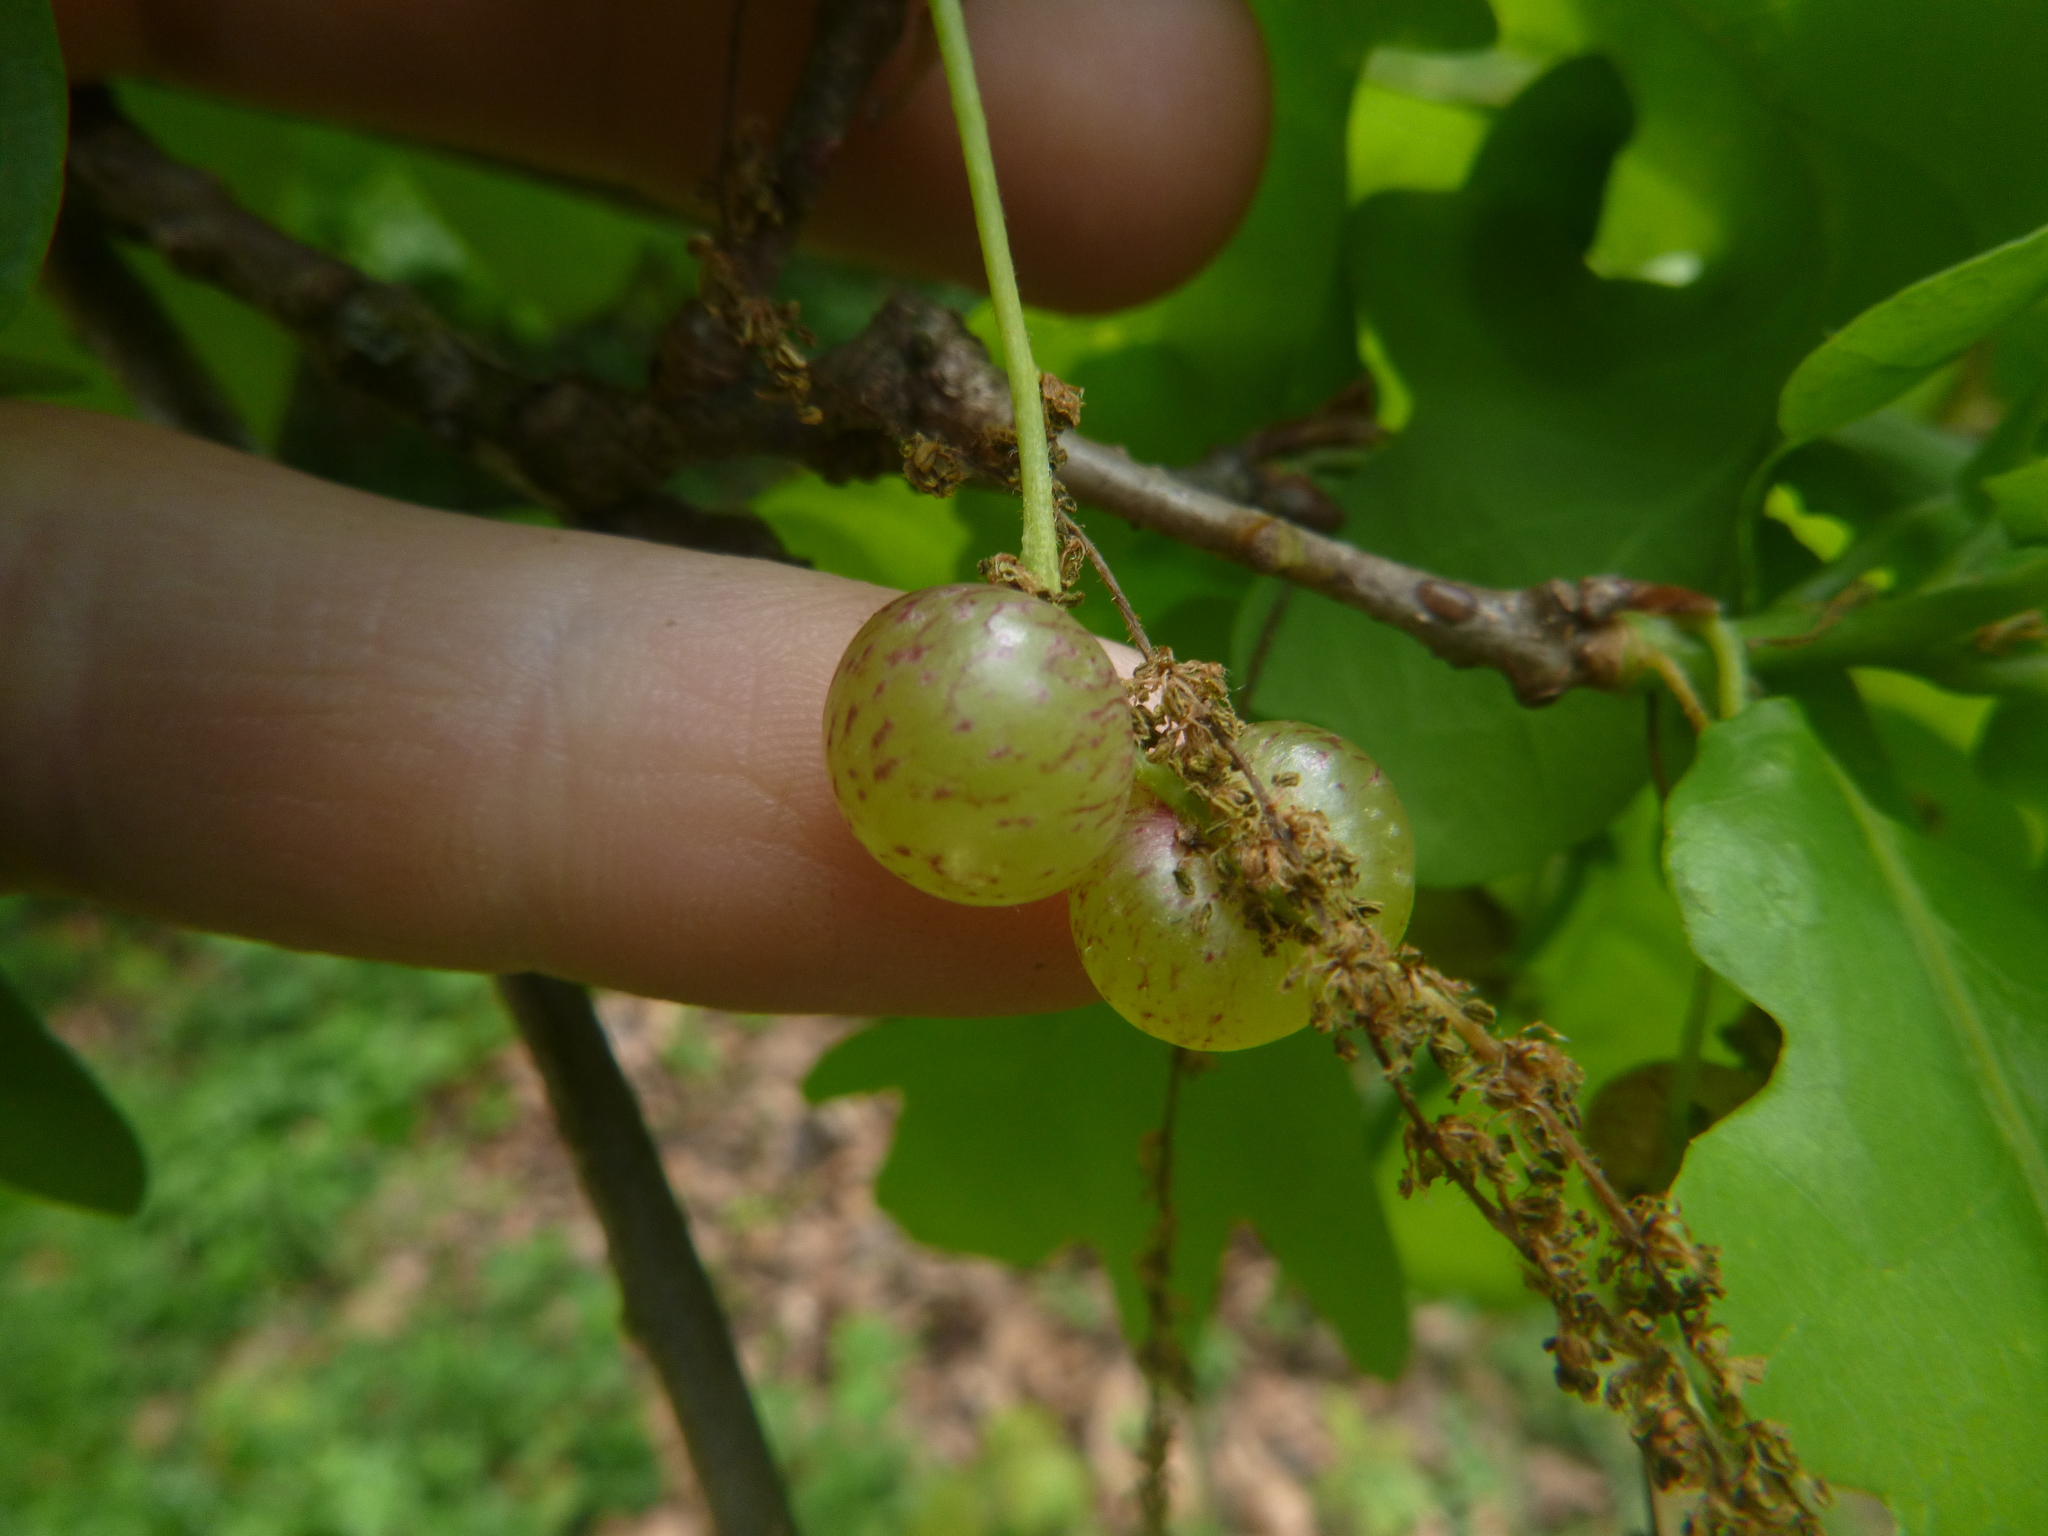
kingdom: Animalia
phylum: Arthropoda
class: Insecta
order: Hymenoptera
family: Cynipidae
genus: Neuroterus
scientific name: Neuroterus quercusbaccarum
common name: Common spangle gall
